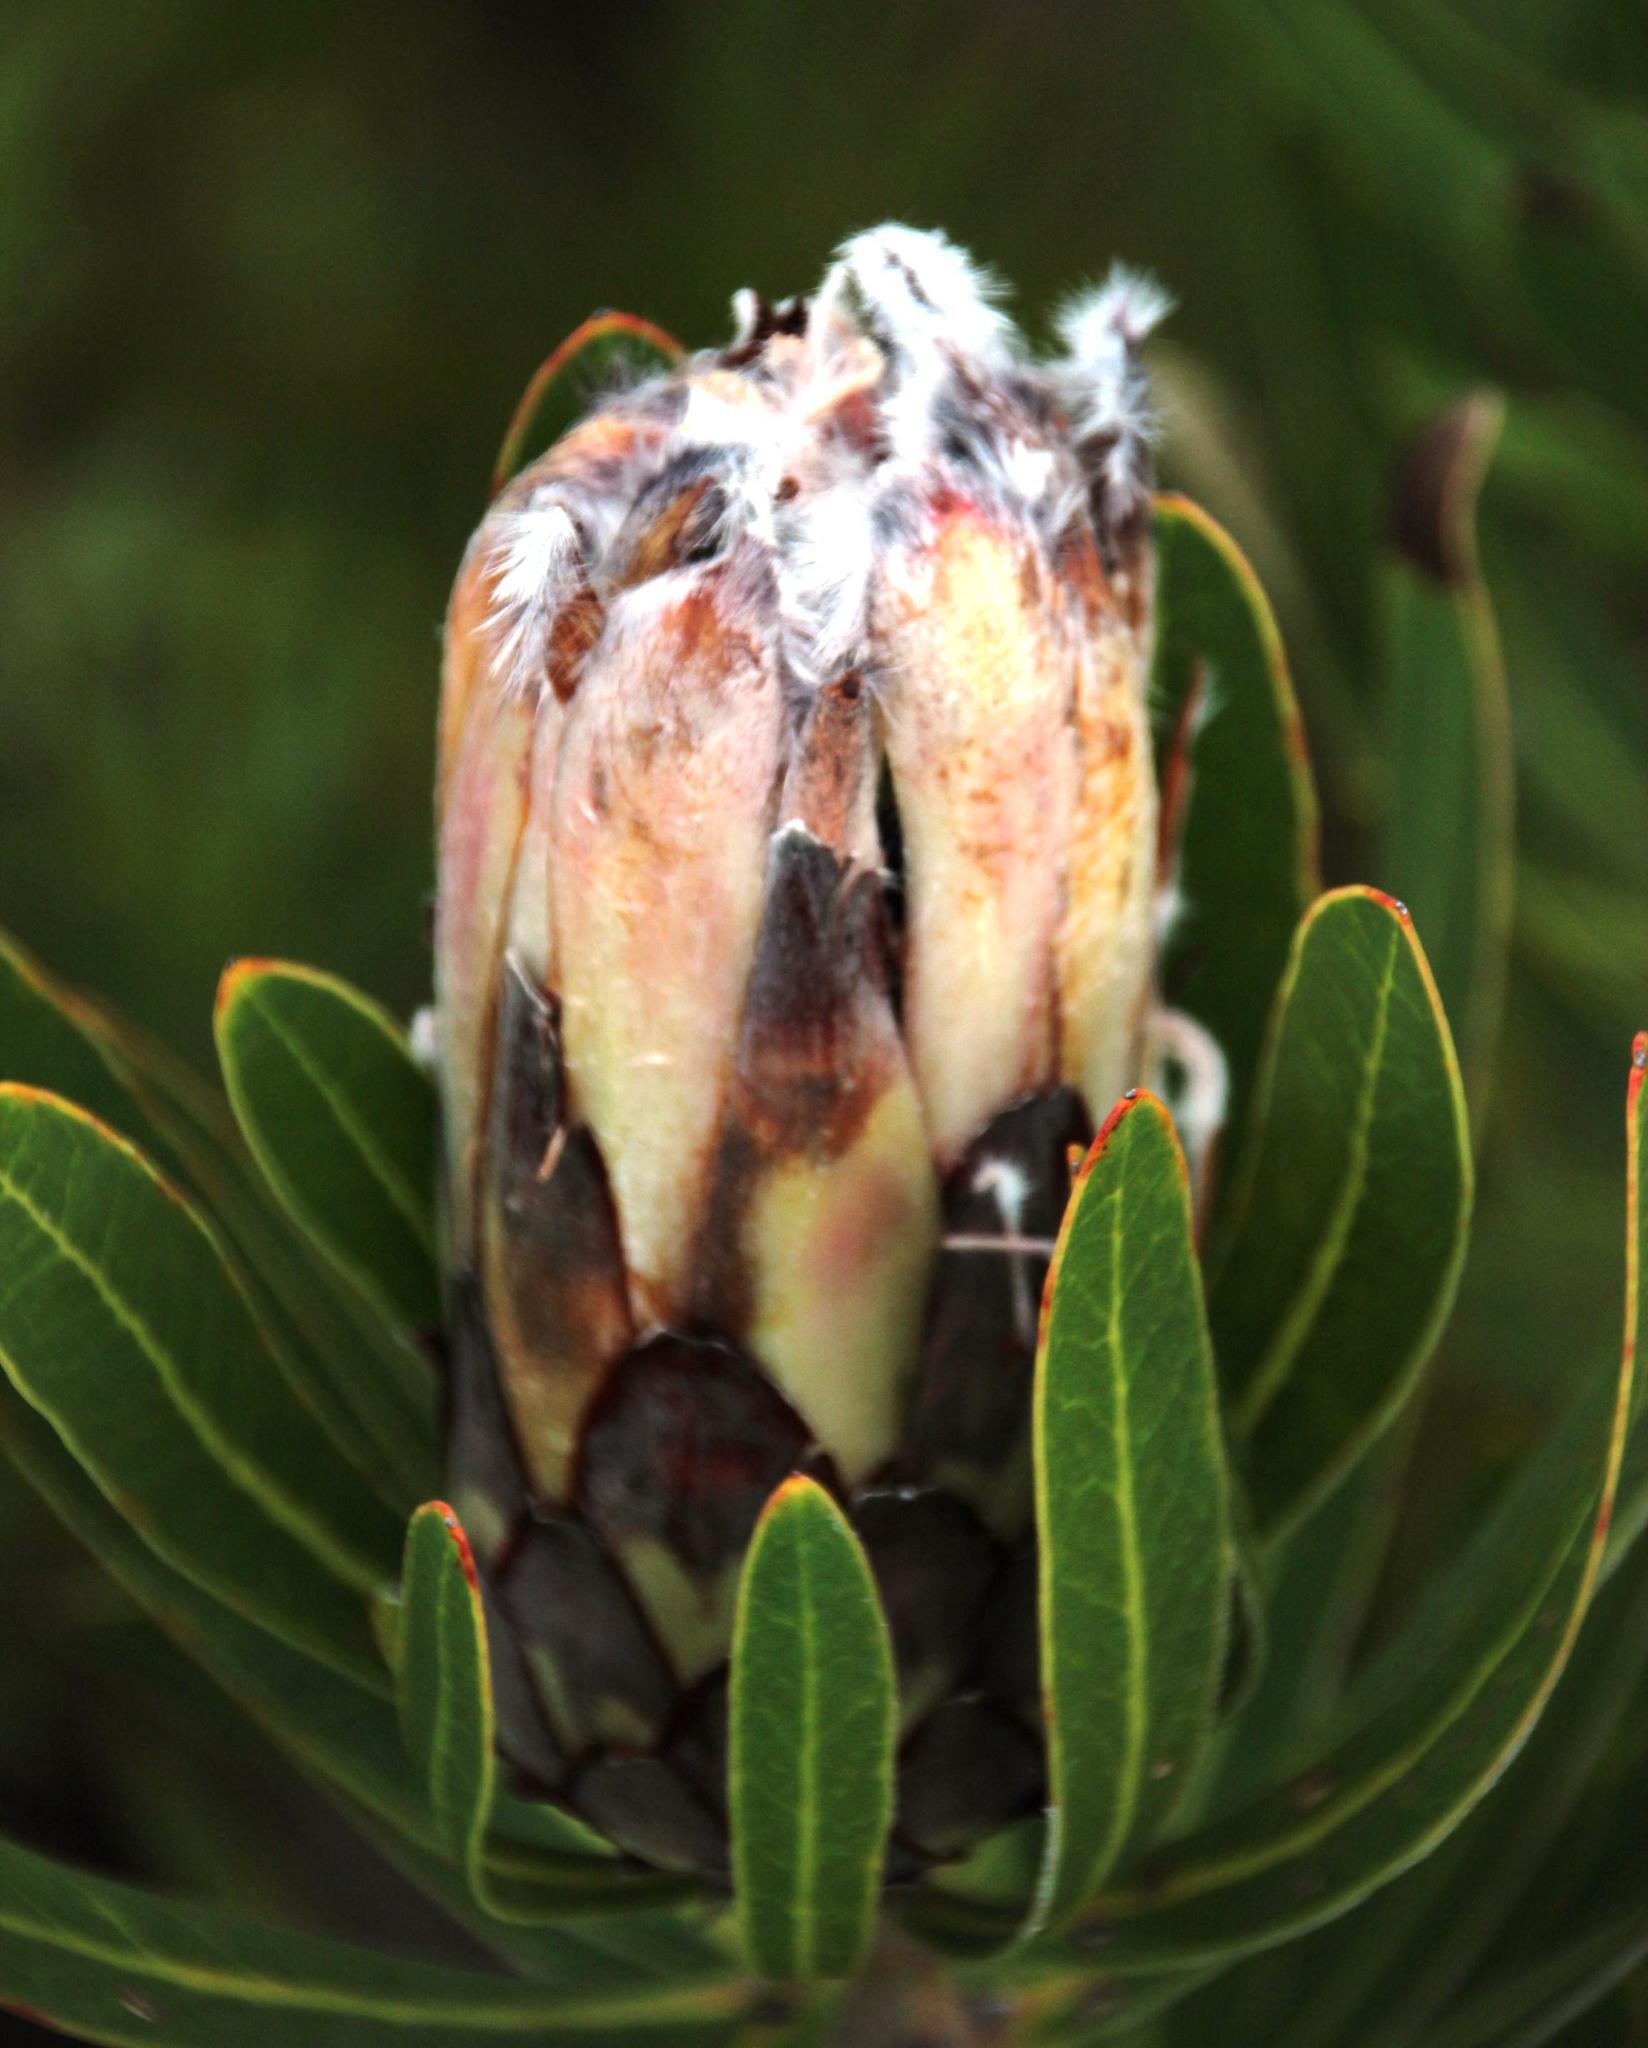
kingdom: Plantae
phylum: Tracheophyta
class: Magnoliopsida
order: Proteales
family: Proteaceae
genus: Protea
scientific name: Protea
